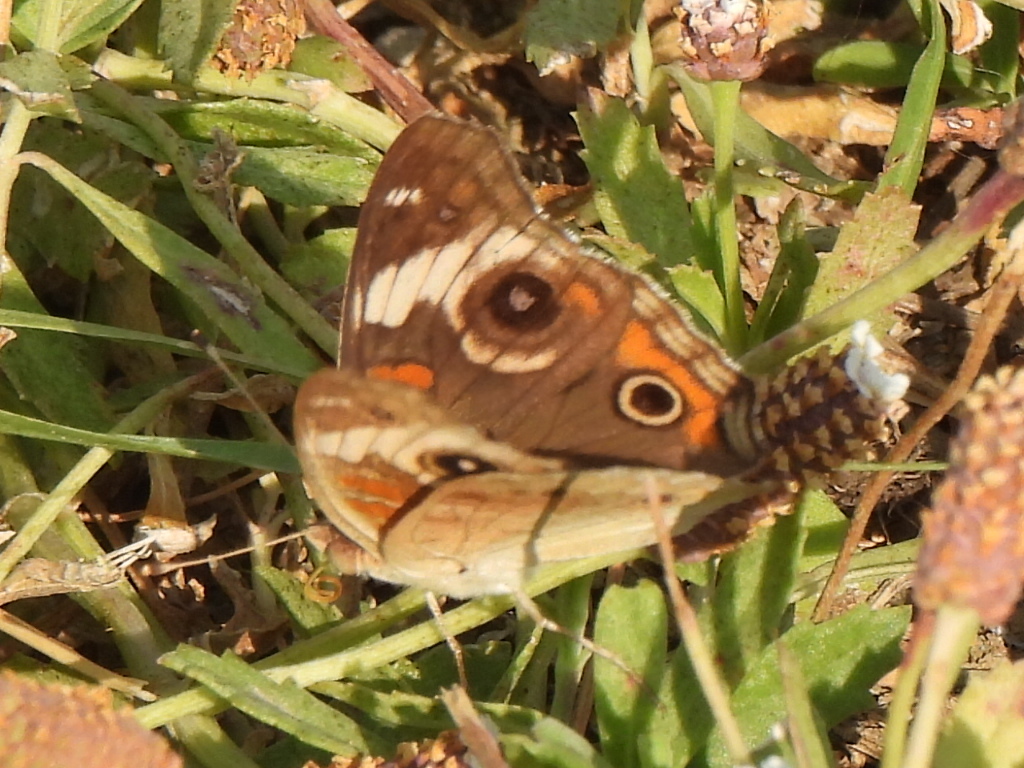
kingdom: Animalia
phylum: Arthropoda
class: Insecta
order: Lepidoptera
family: Nymphalidae
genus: Junonia
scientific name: Junonia coenia
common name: Common buckeye
